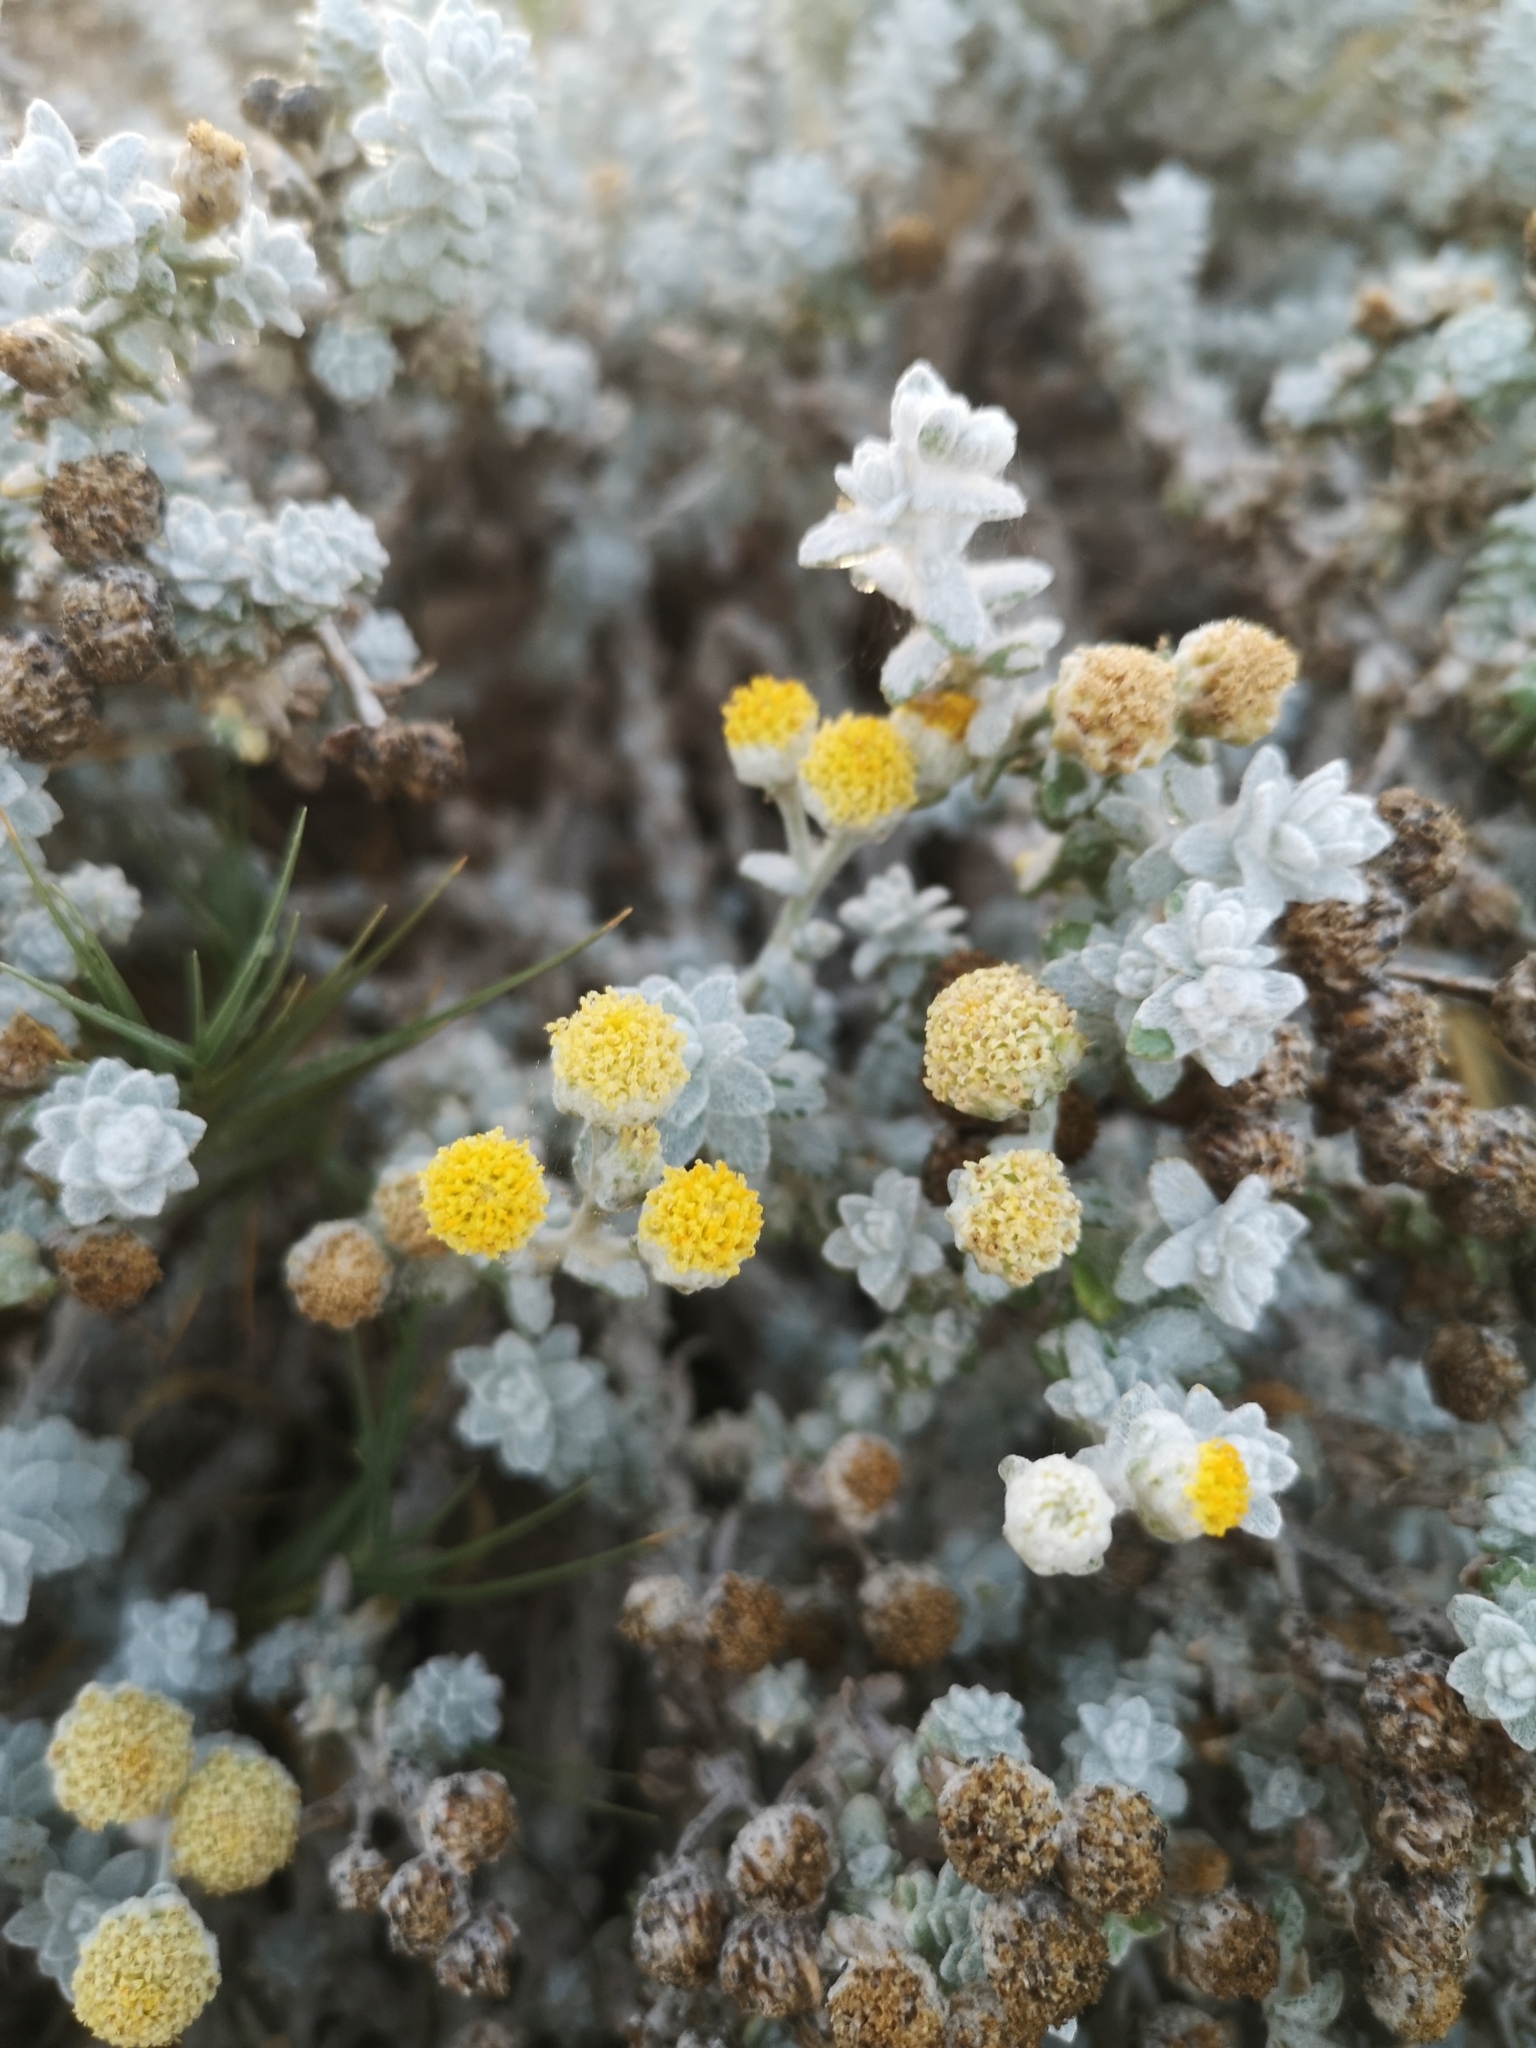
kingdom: Plantae
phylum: Tracheophyta
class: Magnoliopsida
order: Asterales
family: Asteraceae
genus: Achillea
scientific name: Achillea maritima
